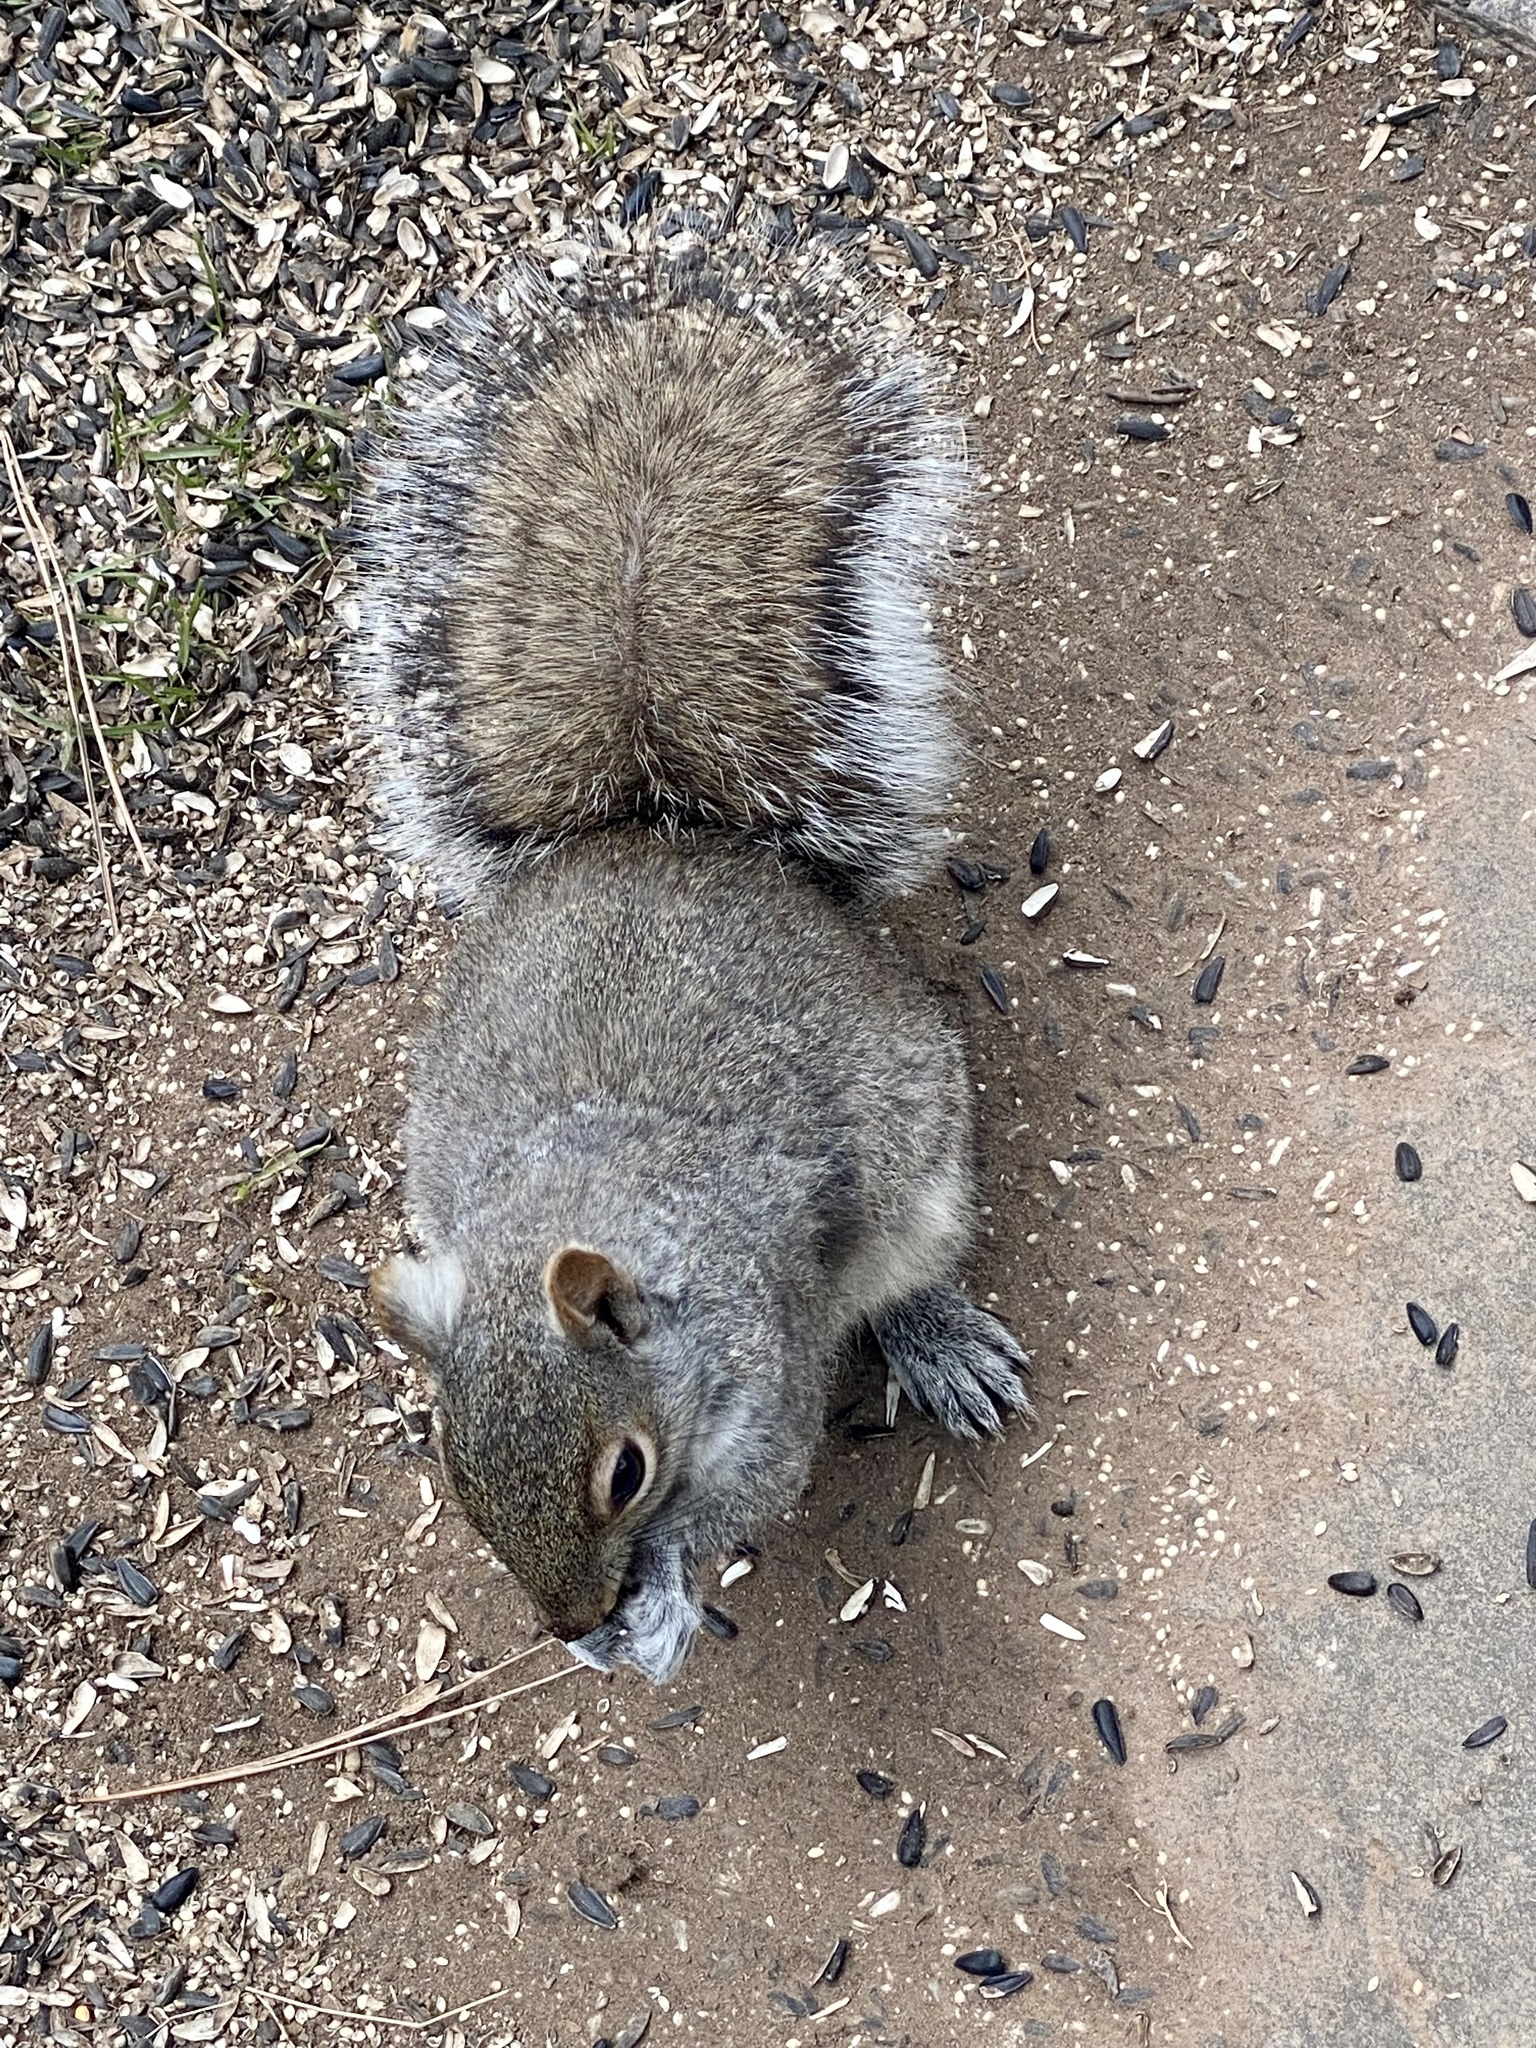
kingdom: Animalia
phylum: Chordata
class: Mammalia
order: Rodentia
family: Sciuridae
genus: Sciurus
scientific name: Sciurus carolinensis
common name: Eastern gray squirrel
